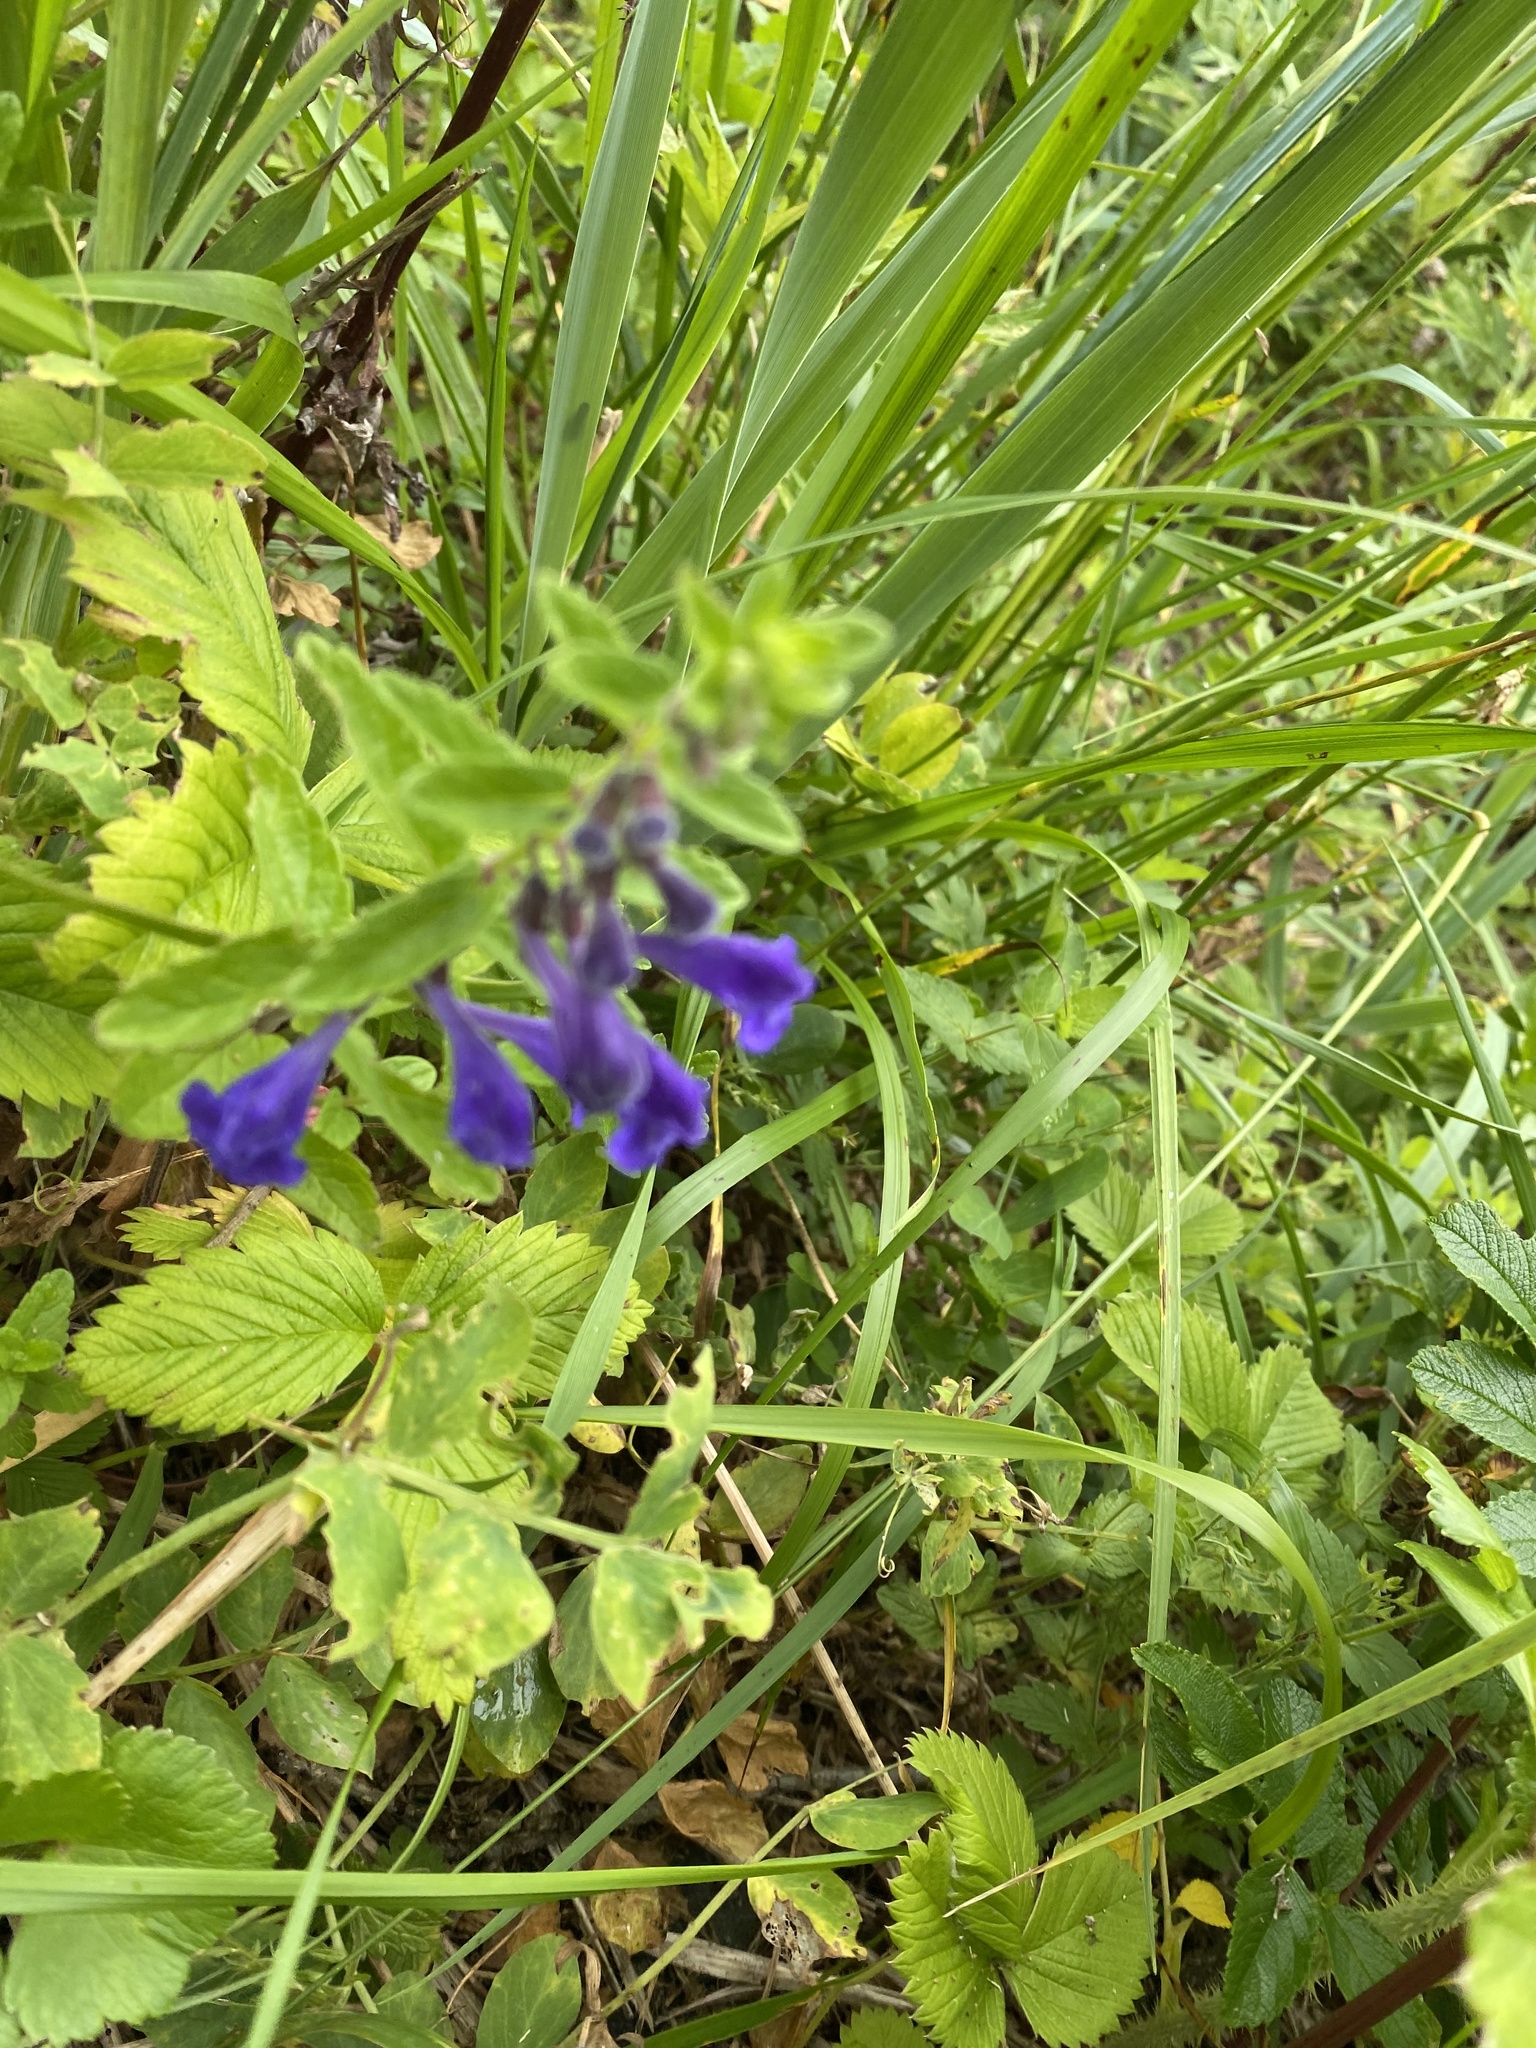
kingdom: Plantae
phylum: Tracheophyta
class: Magnoliopsida
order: Lamiales
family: Lamiaceae
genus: Scutellaria
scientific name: Scutellaria strigillosa
